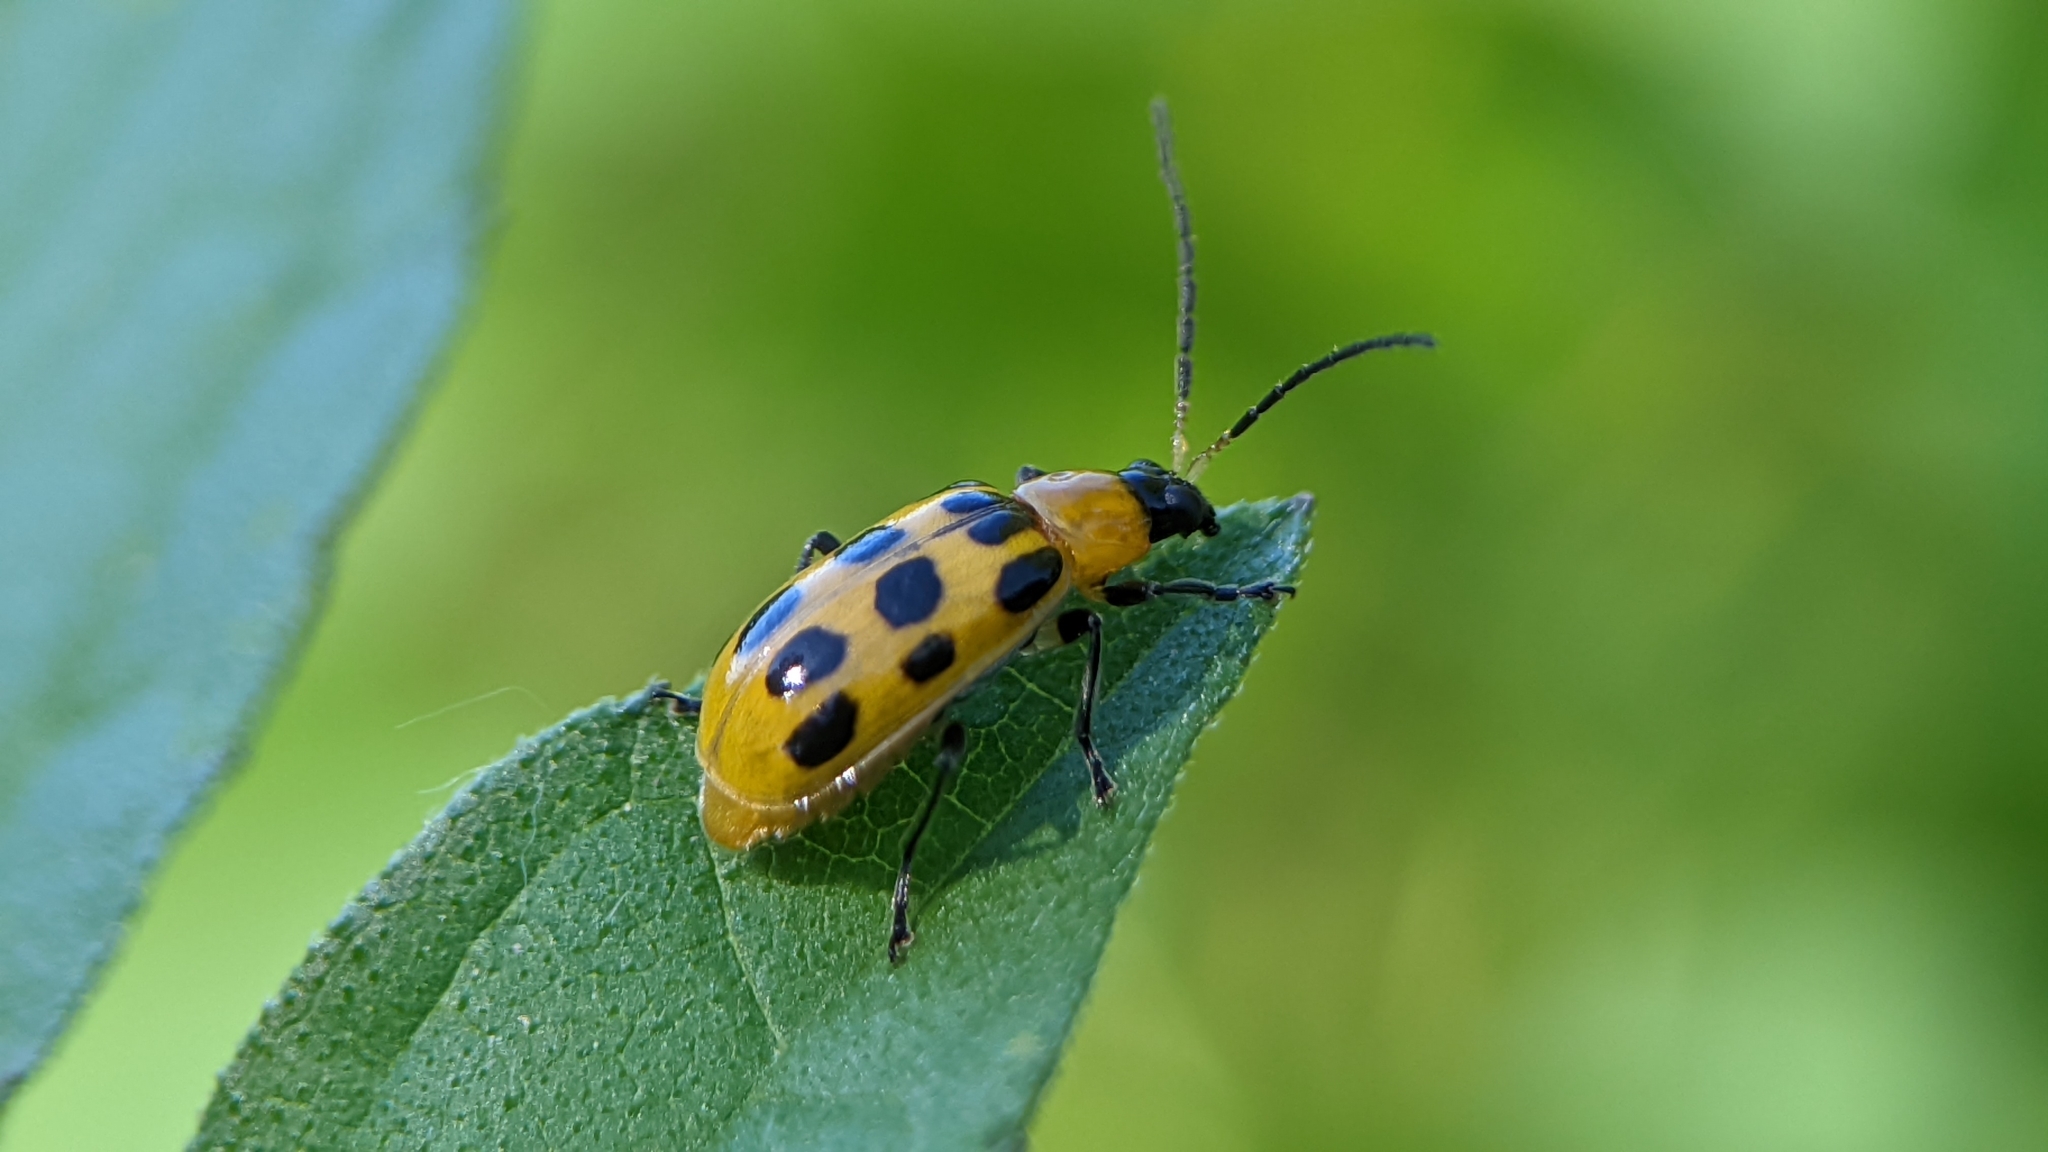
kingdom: Animalia
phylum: Arthropoda
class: Insecta
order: Coleoptera
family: Chrysomelidae
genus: Diabrotica
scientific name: Diabrotica undecimpunctata
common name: Spotted cucumber beetle
